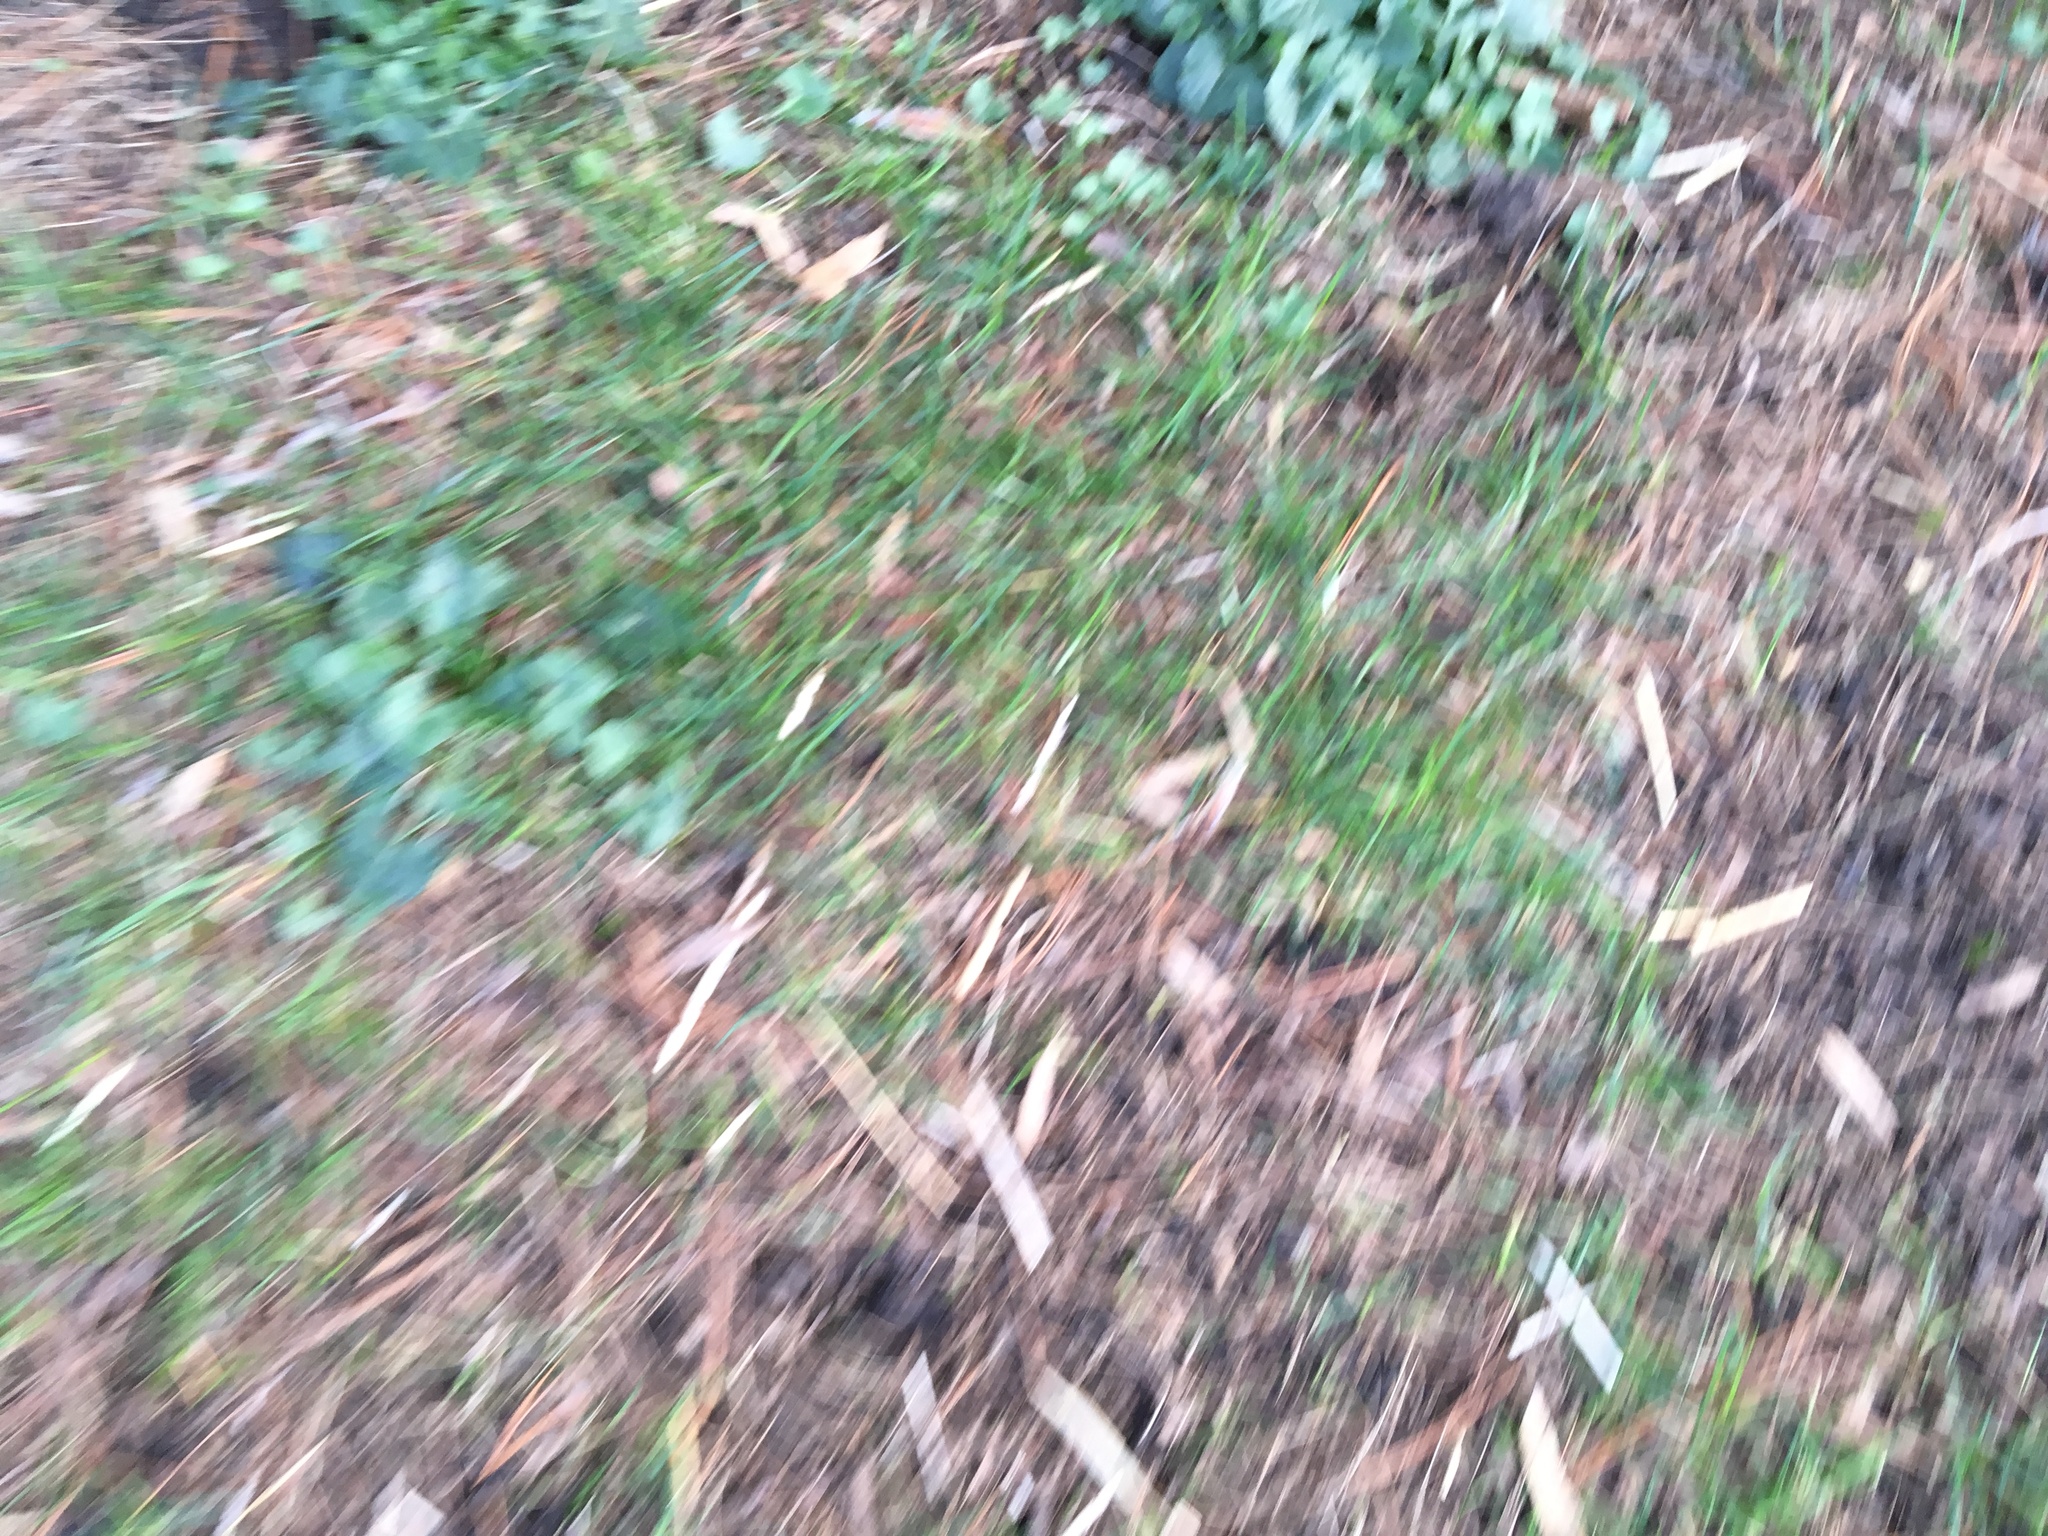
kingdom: Plantae
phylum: Tracheophyta
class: Magnoliopsida
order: Ranunculales
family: Ranunculaceae
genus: Ficaria
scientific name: Ficaria verna
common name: Lesser celandine
